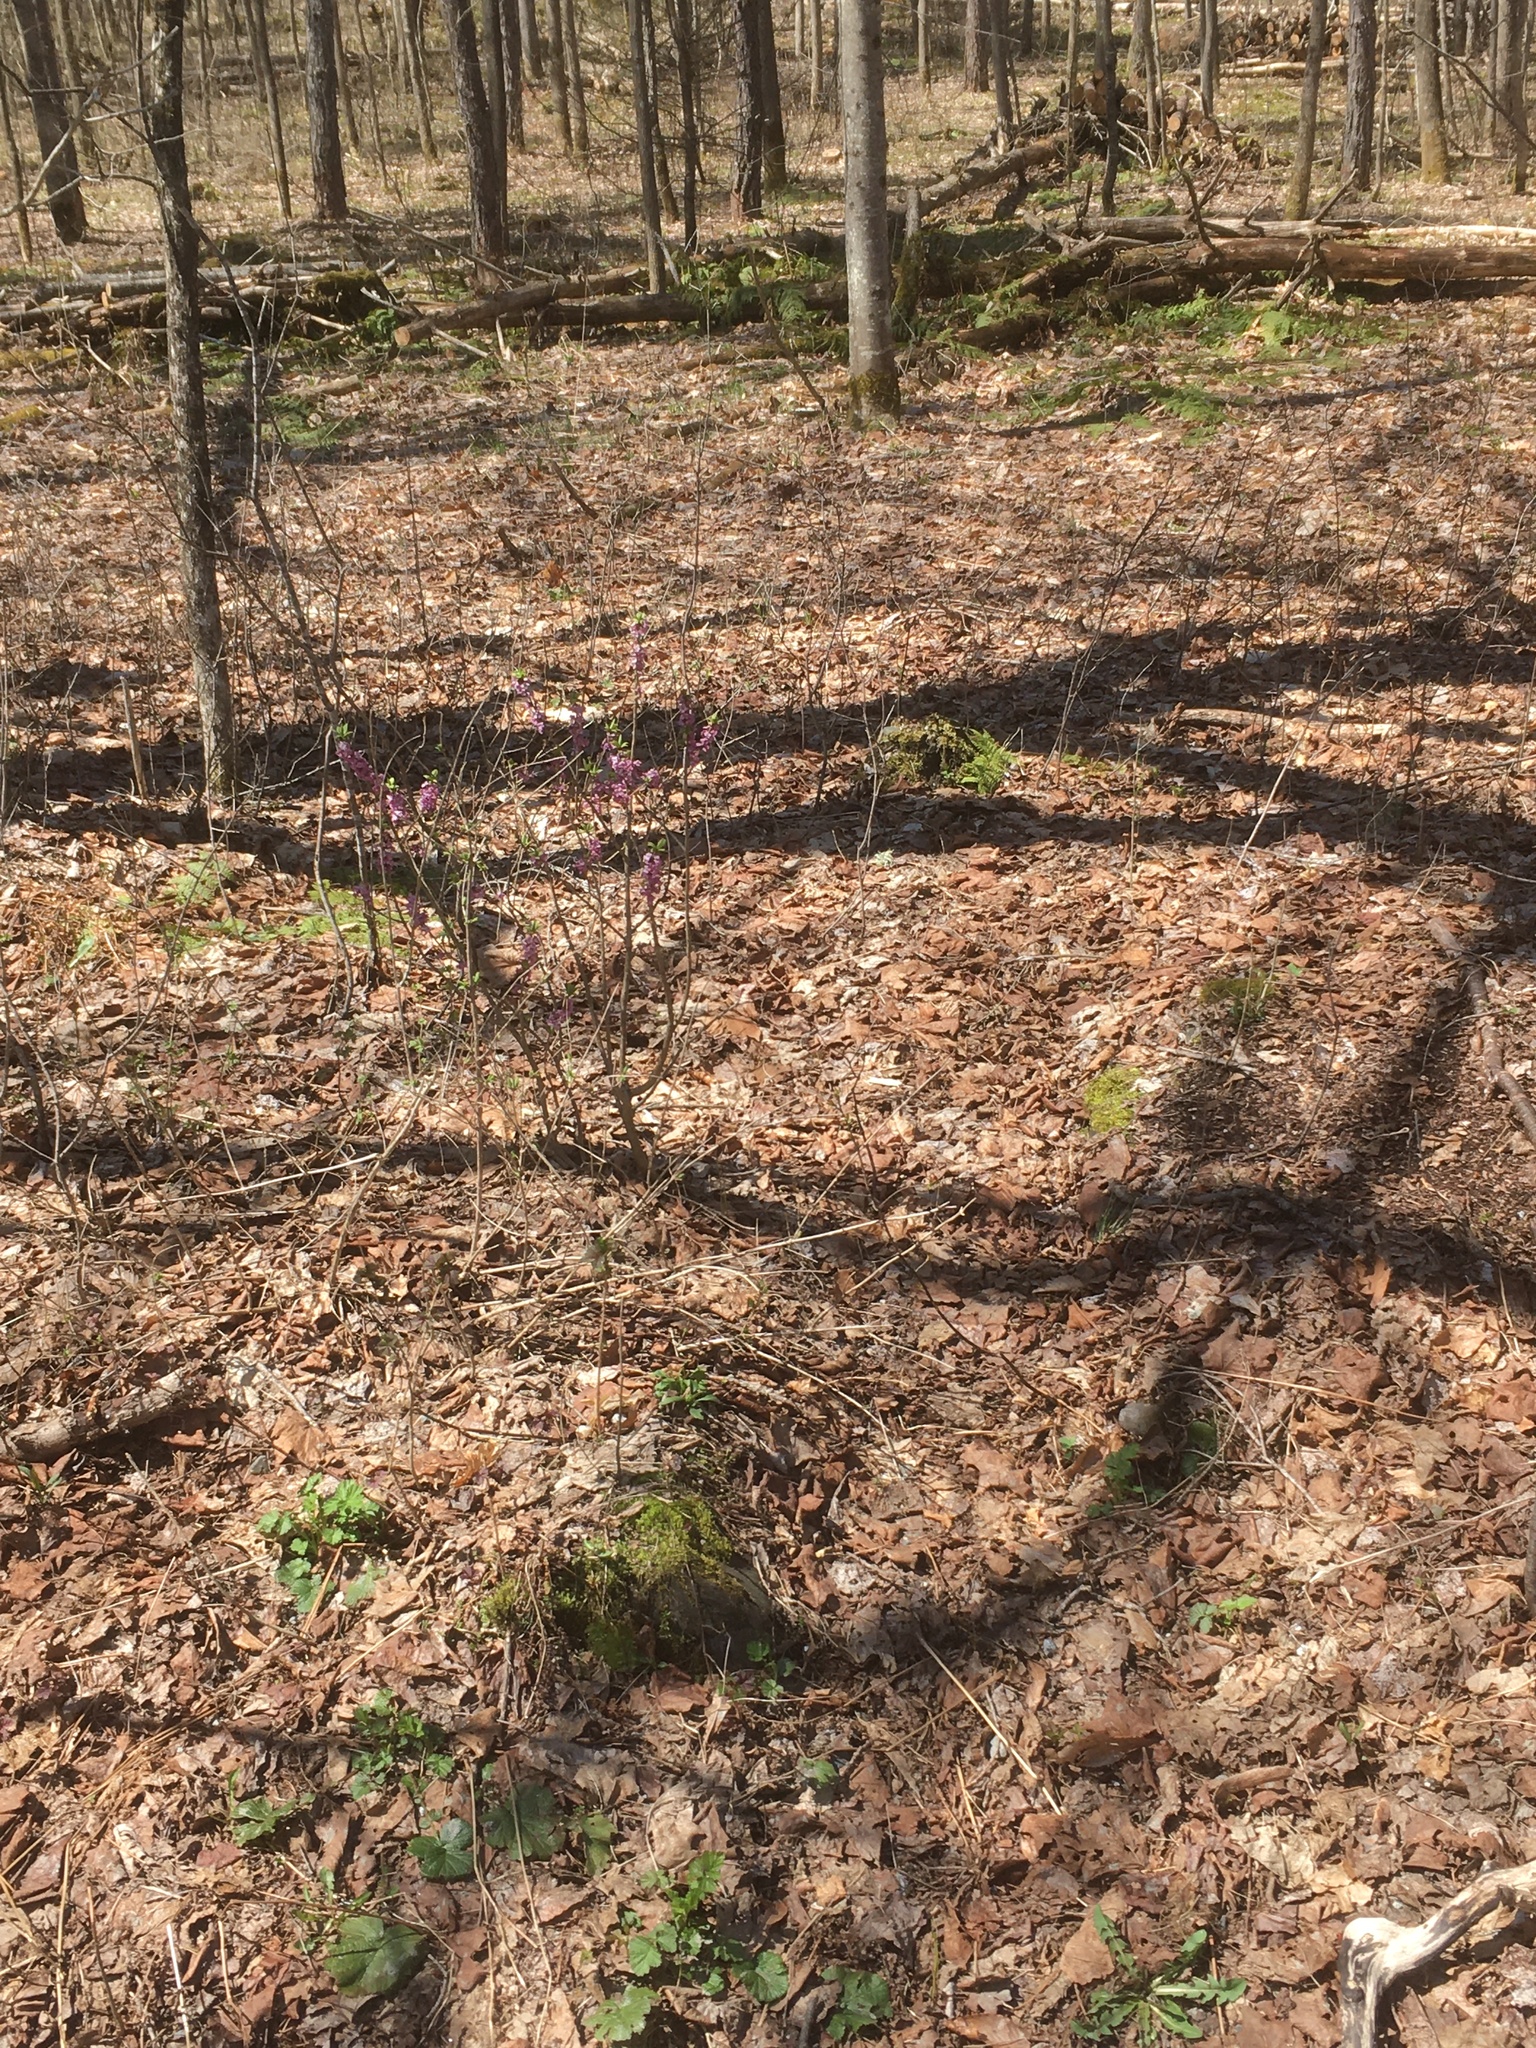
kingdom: Plantae
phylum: Tracheophyta
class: Magnoliopsida
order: Malvales
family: Thymelaeaceae
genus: Daphne
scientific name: Daphne mezereum
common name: Mezereon
